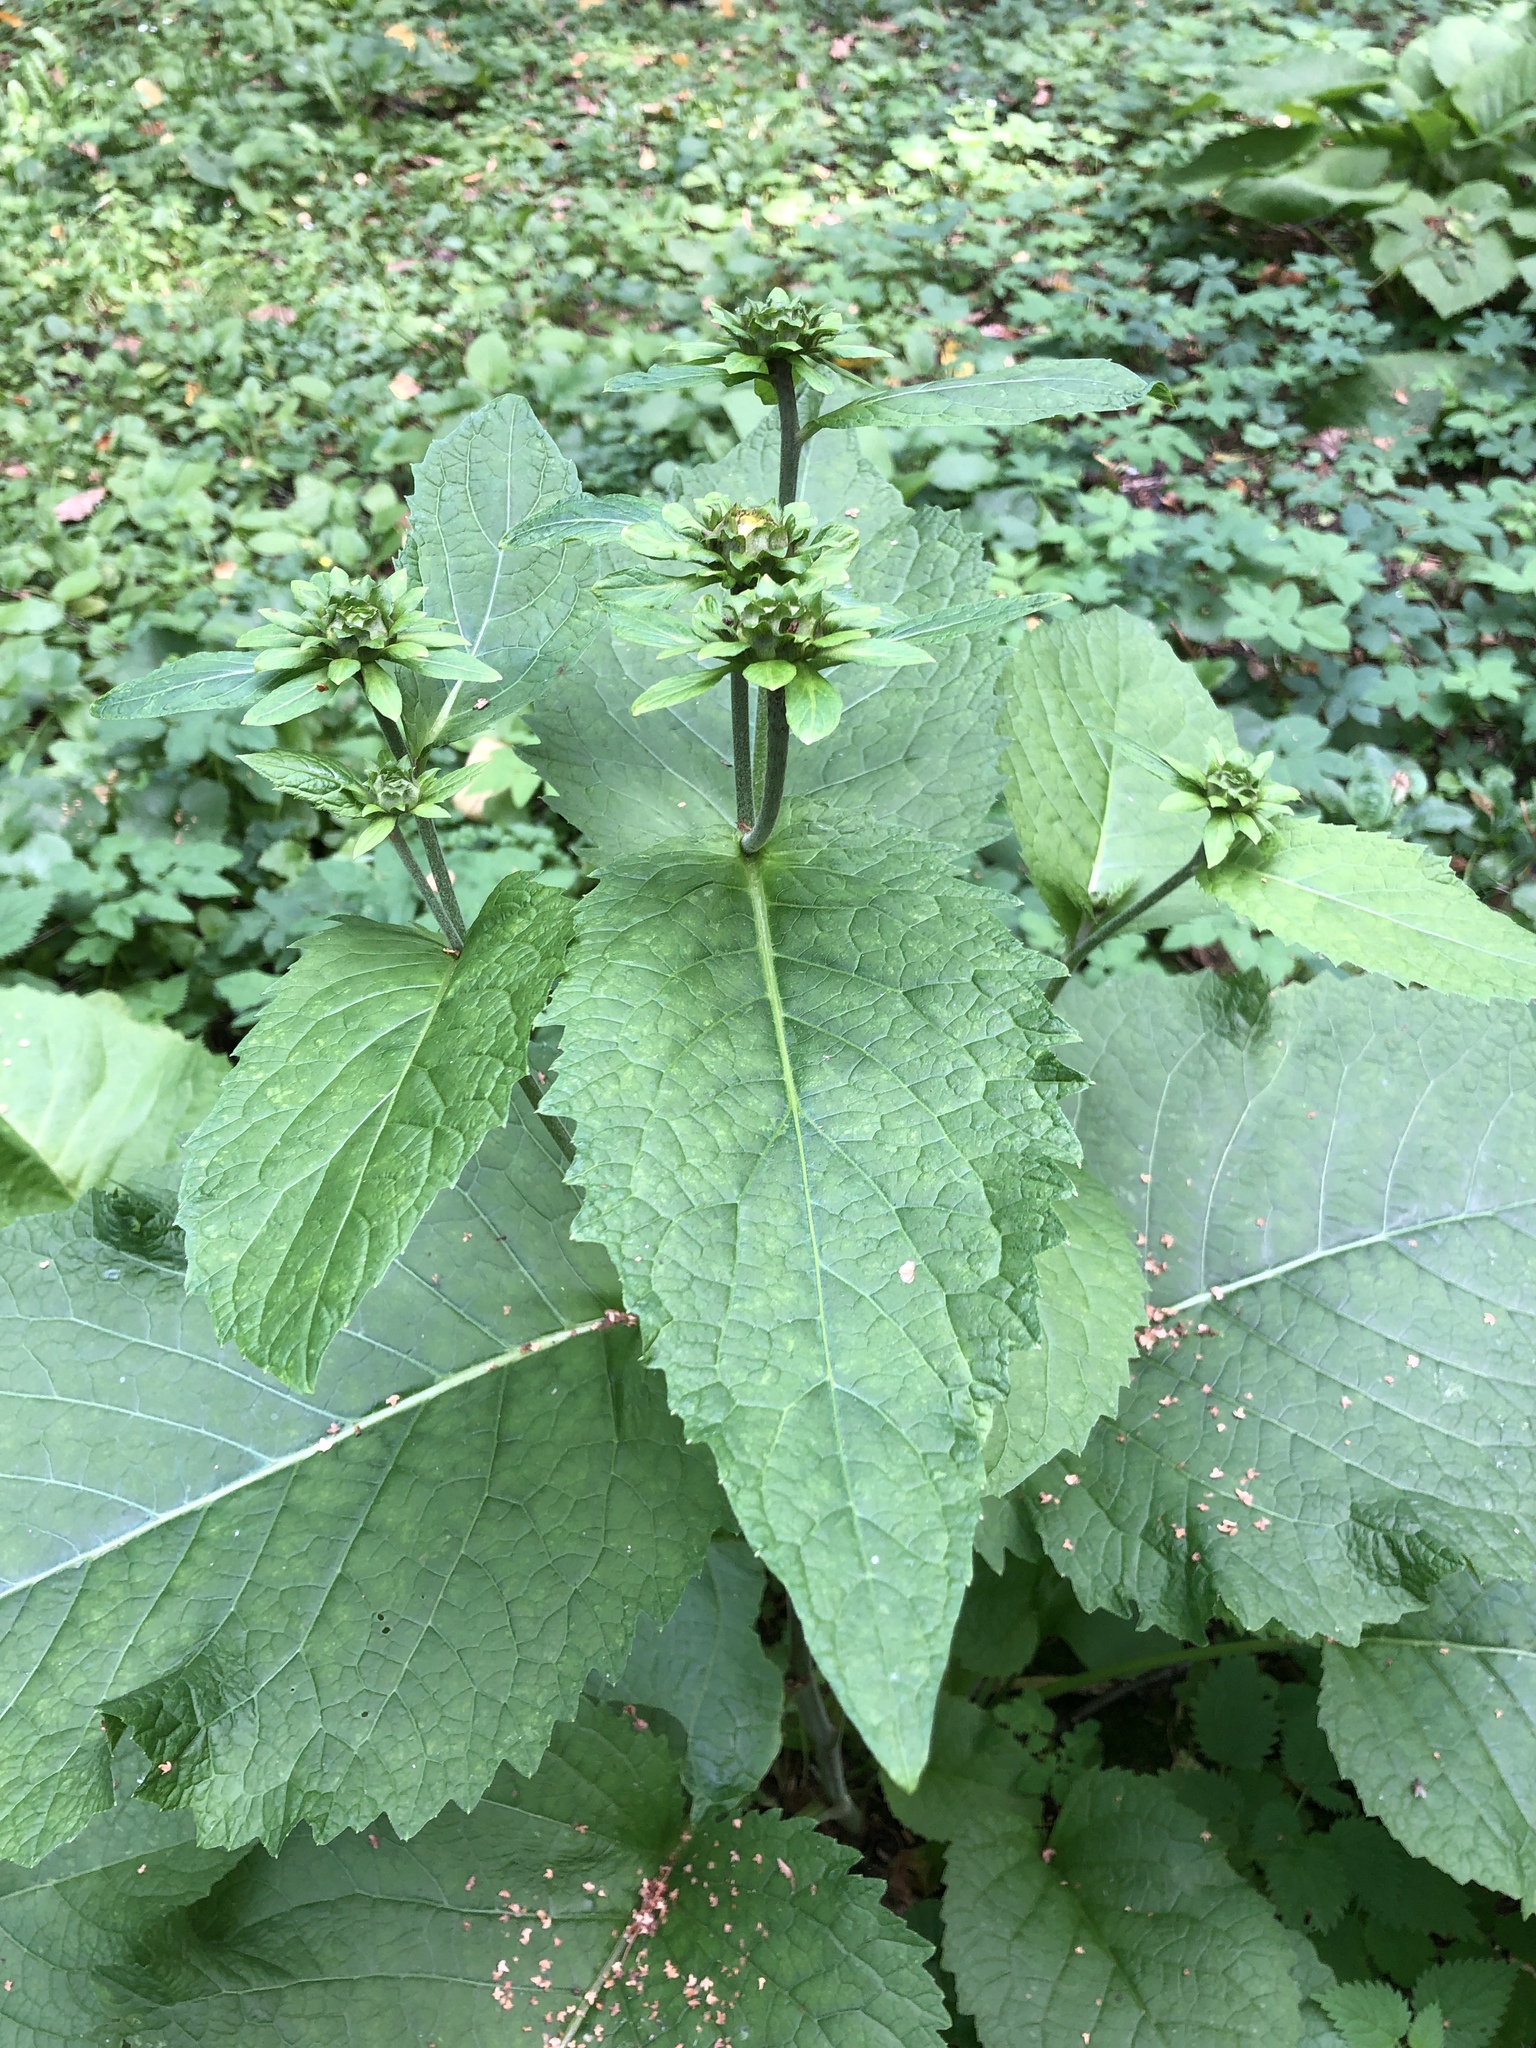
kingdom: Plantae
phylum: Tracheophyta
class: Magnoliopsida
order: Asterales
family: Asteraceae
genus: Telekia
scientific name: Telekia speciosa
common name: Yellow oxeye
